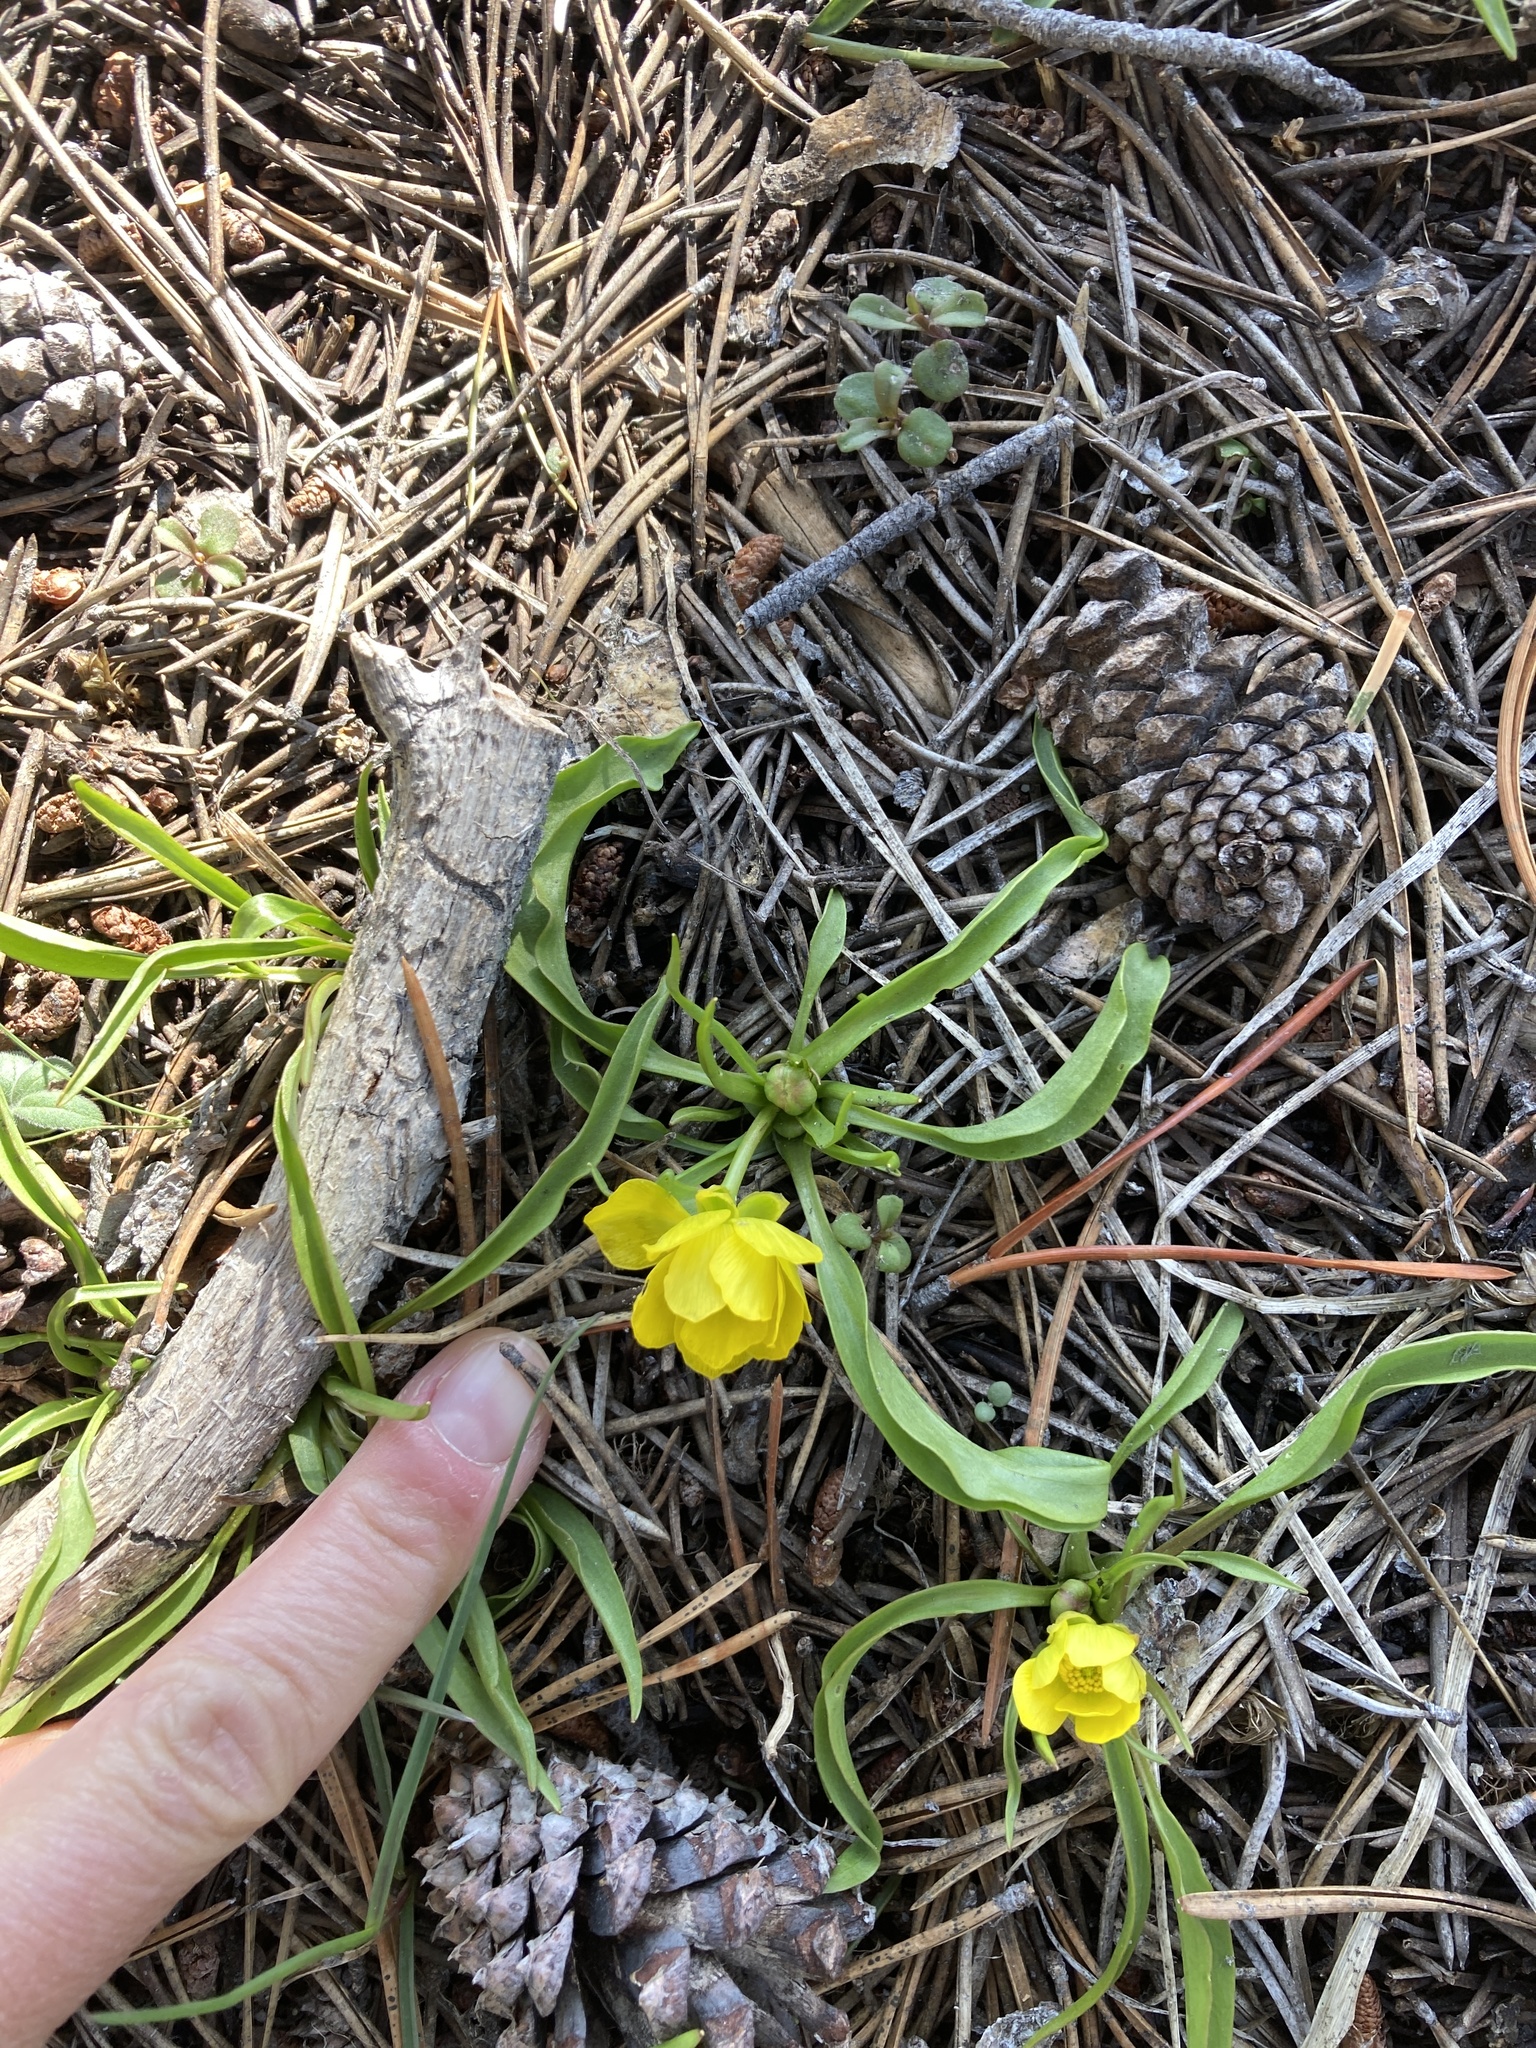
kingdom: Plantae
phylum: Tracheophyta
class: Magnoliopsida
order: Ranunculales
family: Ranunculaceae
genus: Ranunculus
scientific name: Ranunculus alismifolius
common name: Plantain-leaved buttercup
